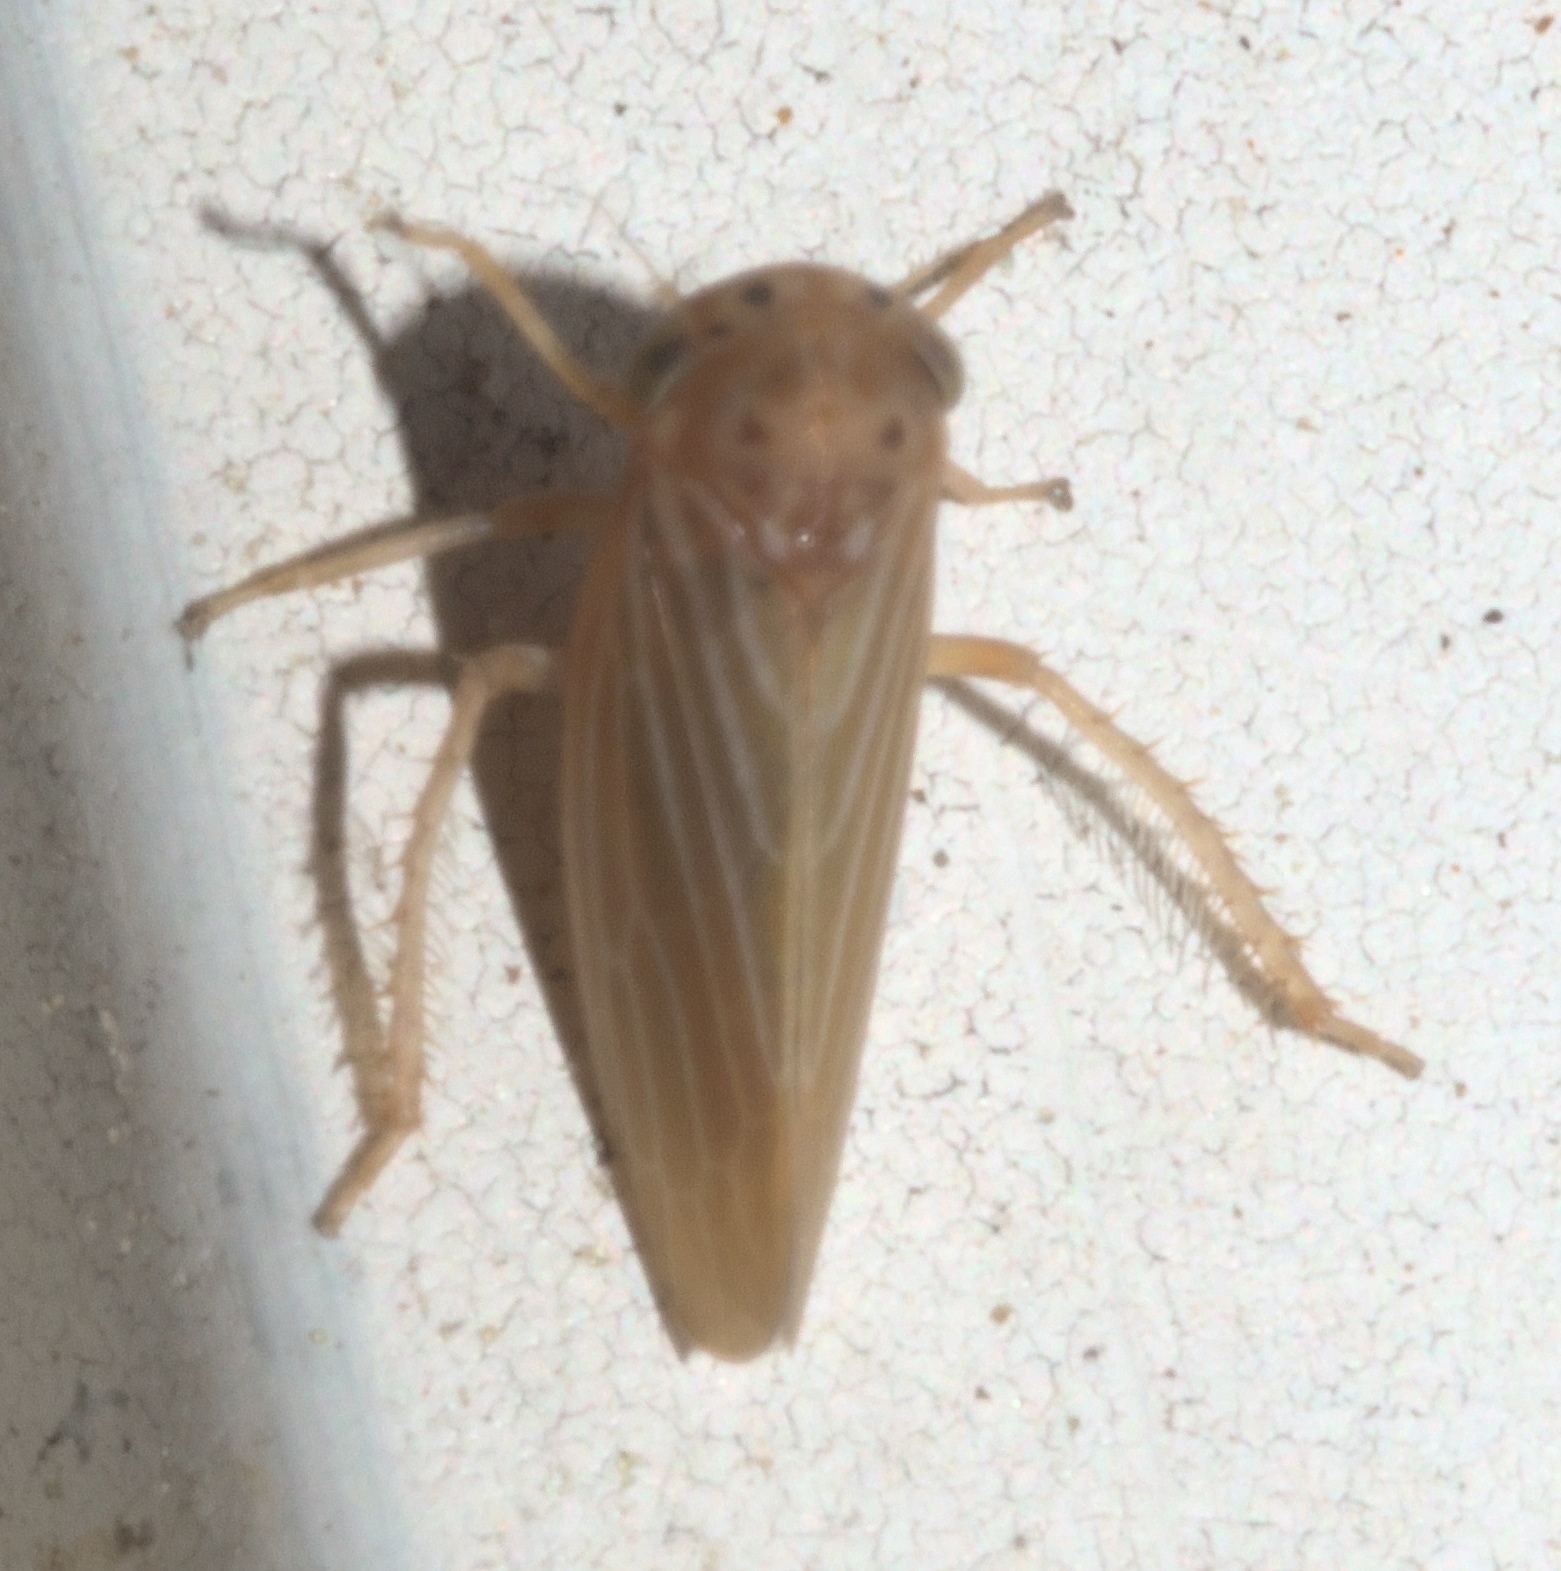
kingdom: Animalia
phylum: Arthropoda
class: Insecta
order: Hemiptera
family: Cicadellidae
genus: Agallia
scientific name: Agallia constricta
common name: The constricted leafhopper
